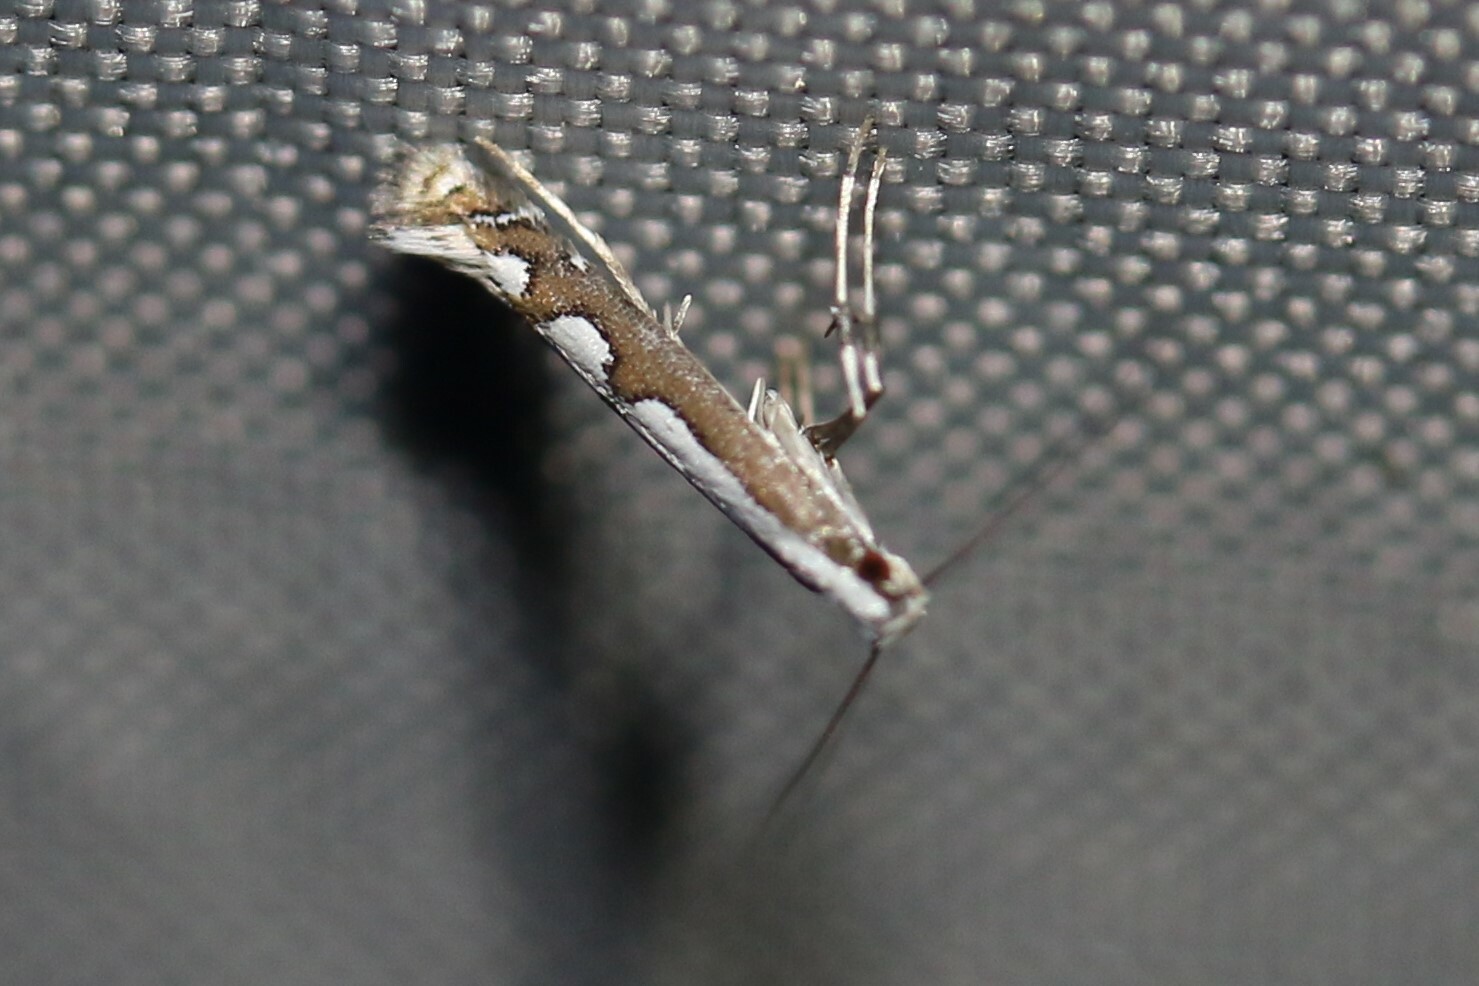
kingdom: Animalia
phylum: Arthropoda
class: Insecta
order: Lepidoptera
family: Gracillariidae
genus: Dialectica
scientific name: Dialectica scalariella
